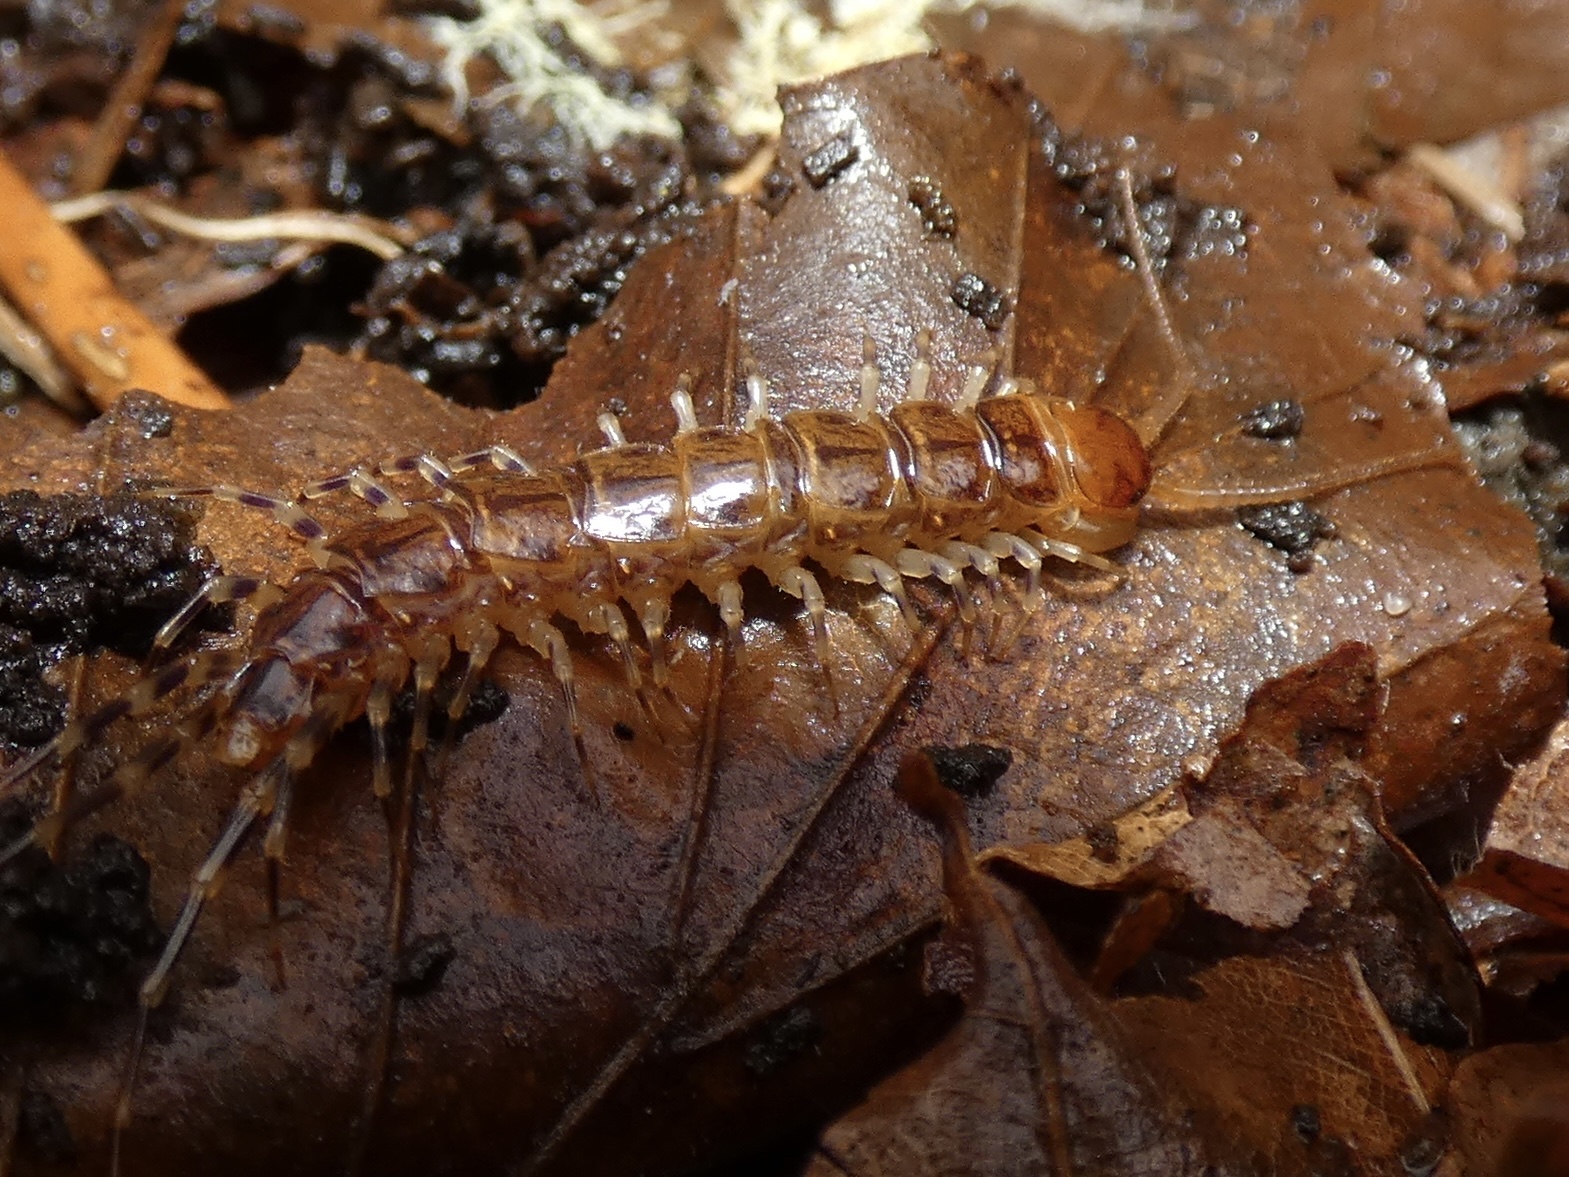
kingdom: Animalia
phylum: Arthropoda
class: Chilopoda
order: Lithobiomorpha
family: Lithobiidae
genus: Lithobius
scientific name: Lithobius variegatus
